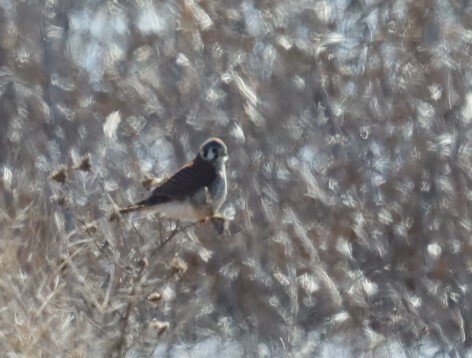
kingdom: Animalia
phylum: Chordata
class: Aves
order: Falconiformes
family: Falconidae
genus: Falco
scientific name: Falco sparverius
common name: American kestrel
